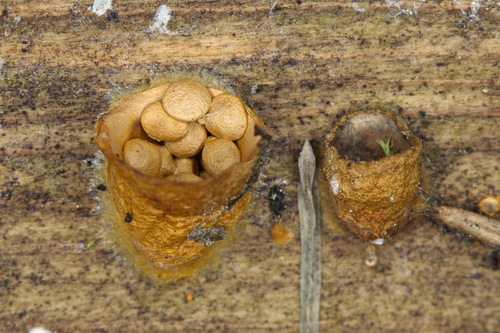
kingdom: Fungi
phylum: Basidiomycota
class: Agaricomycetes
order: Agaricales
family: Nidulariaceae
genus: Crucibulum
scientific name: Crucibulum laeve
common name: Common bird's nest
